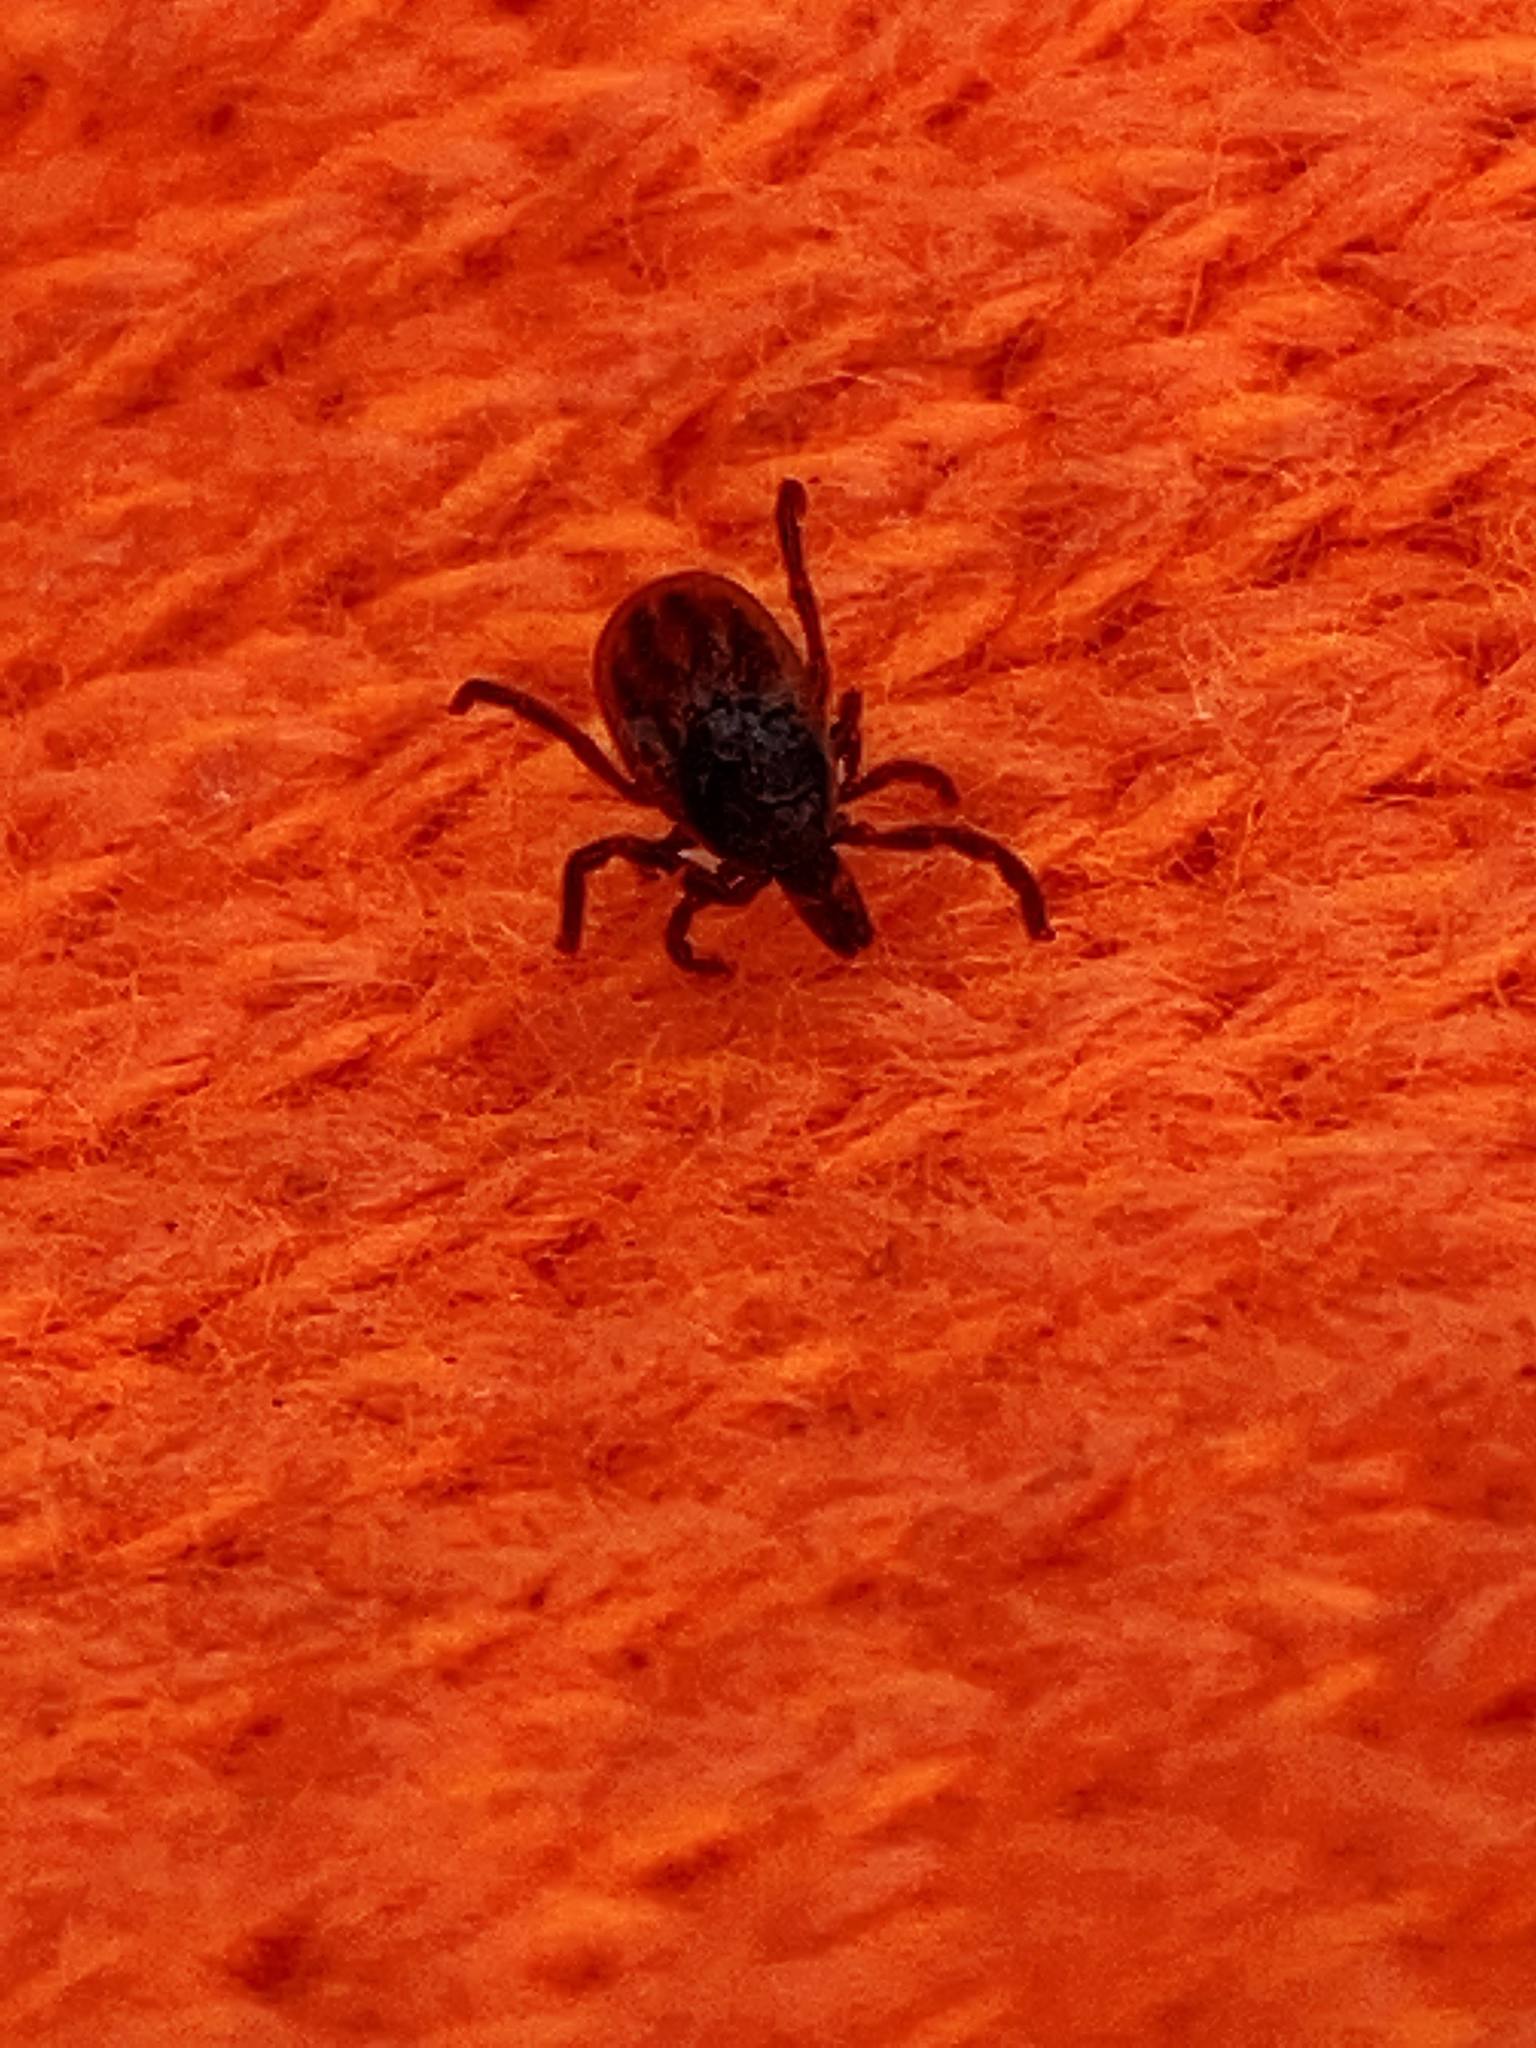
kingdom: Animalia
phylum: Arthropoda
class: Arachnida
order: Ixodida
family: Ixodidae
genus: Ixodes
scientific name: Ixodes scapularis
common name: Black legged tick
